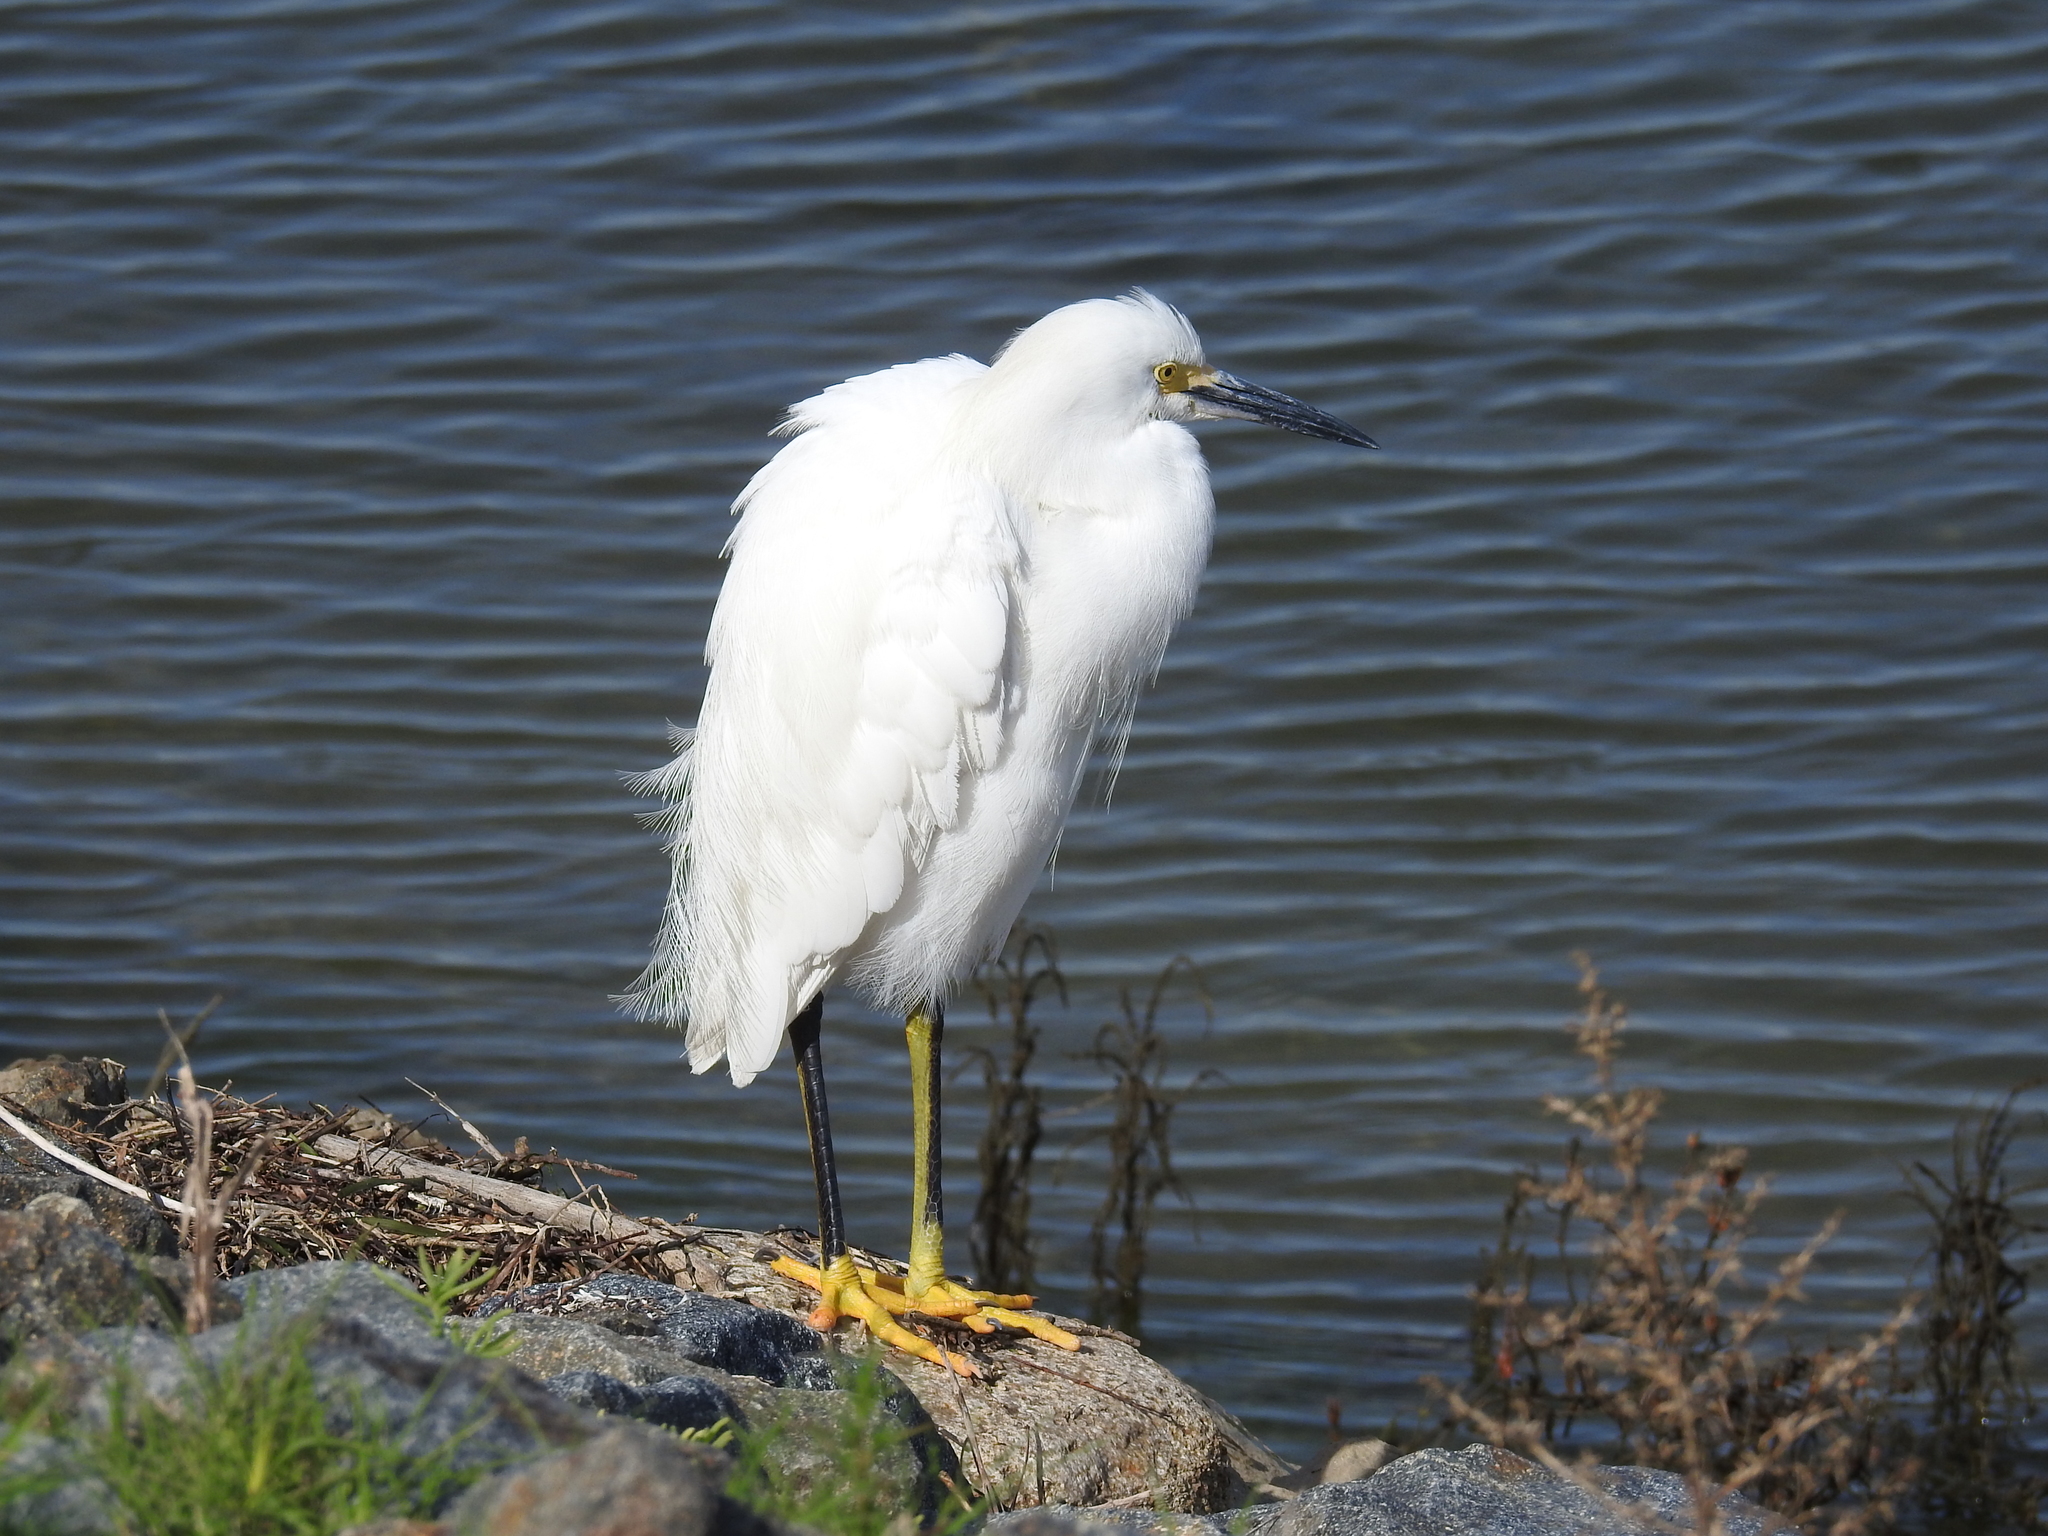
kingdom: Animalia
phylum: Chordata
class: Aves
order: Pelecaniformes
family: Ardeidae
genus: Egretta
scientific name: Egretta thula
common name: Snowy egret
